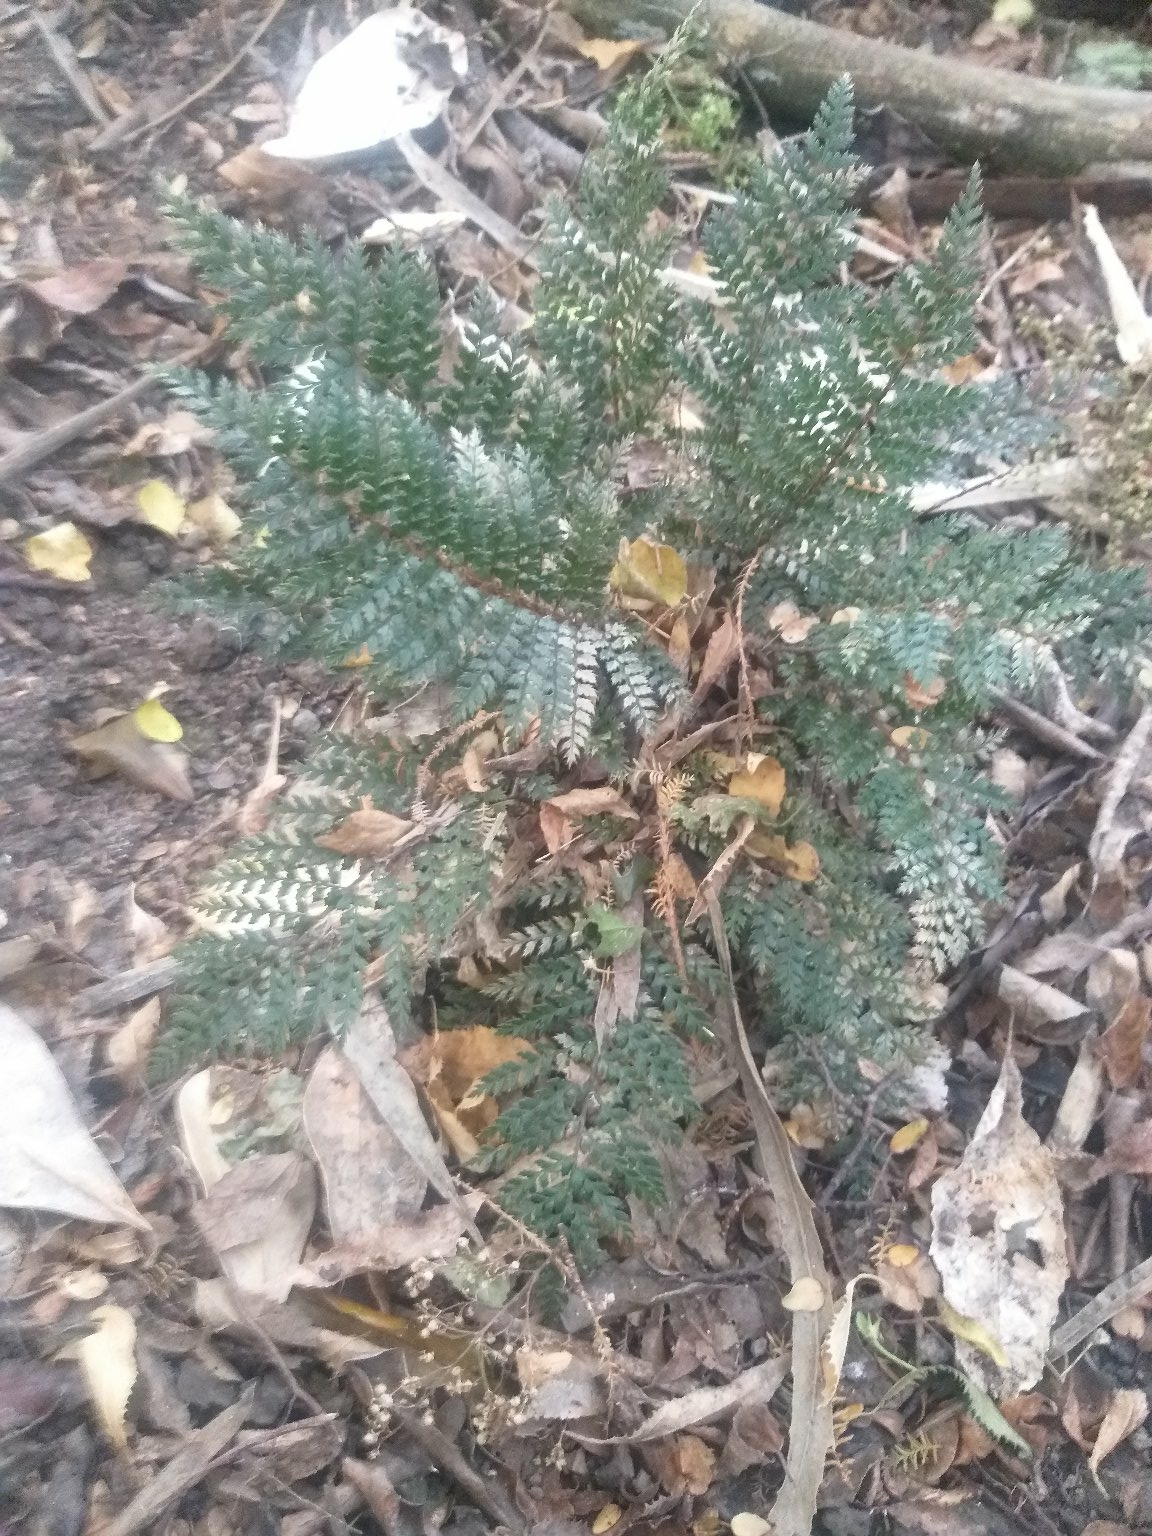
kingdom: Plantae
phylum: Tracheophyta
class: Polypodiopsida
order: Polypodiales
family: Dryopteridaceae
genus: Polystichum
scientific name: Polystichum vestitum
